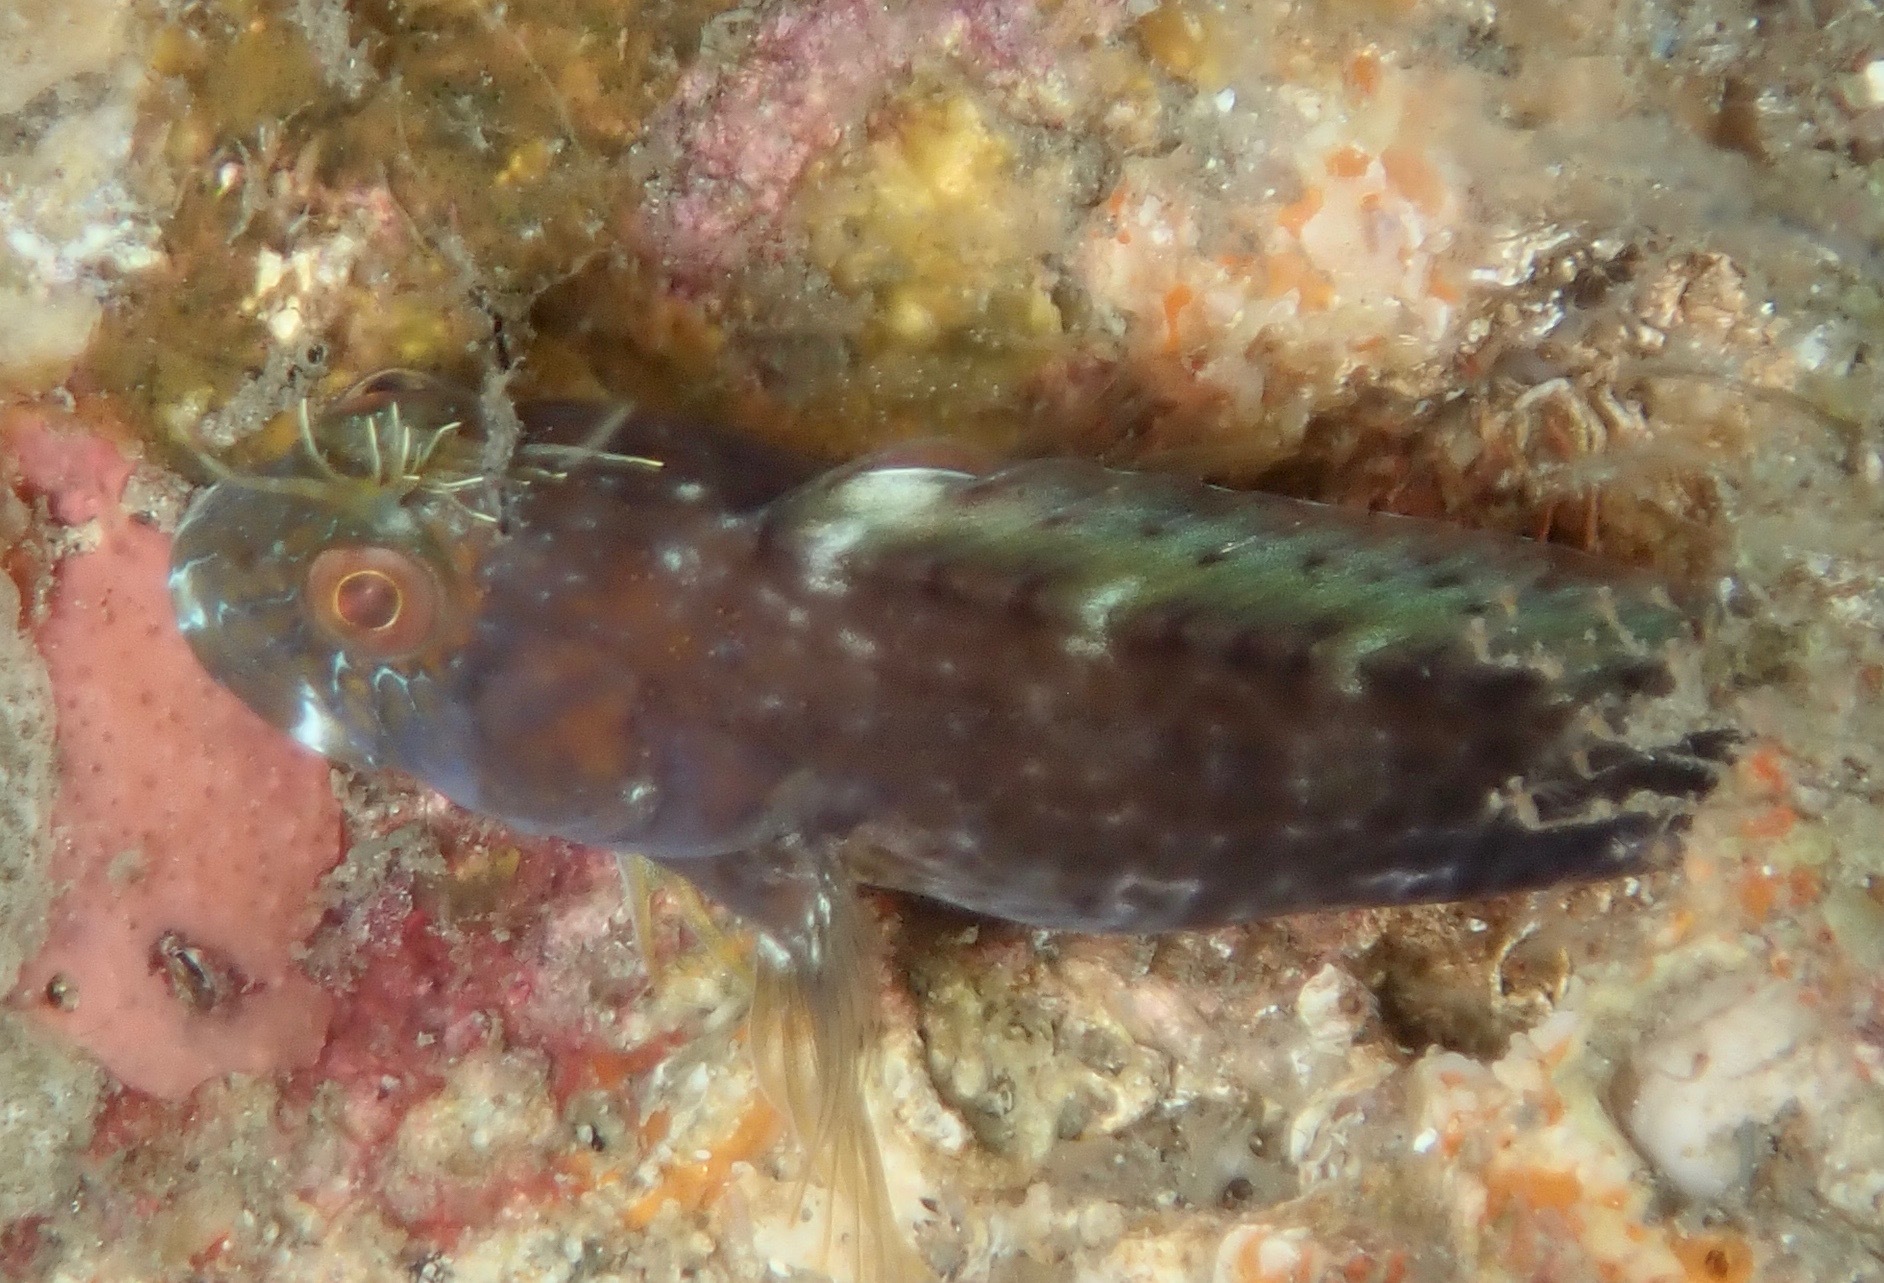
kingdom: Animalia
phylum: Chordata
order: Perciformes
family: Blenniidae
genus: Parablennius
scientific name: Parablennius marmoreus
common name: Seaweed blenny
